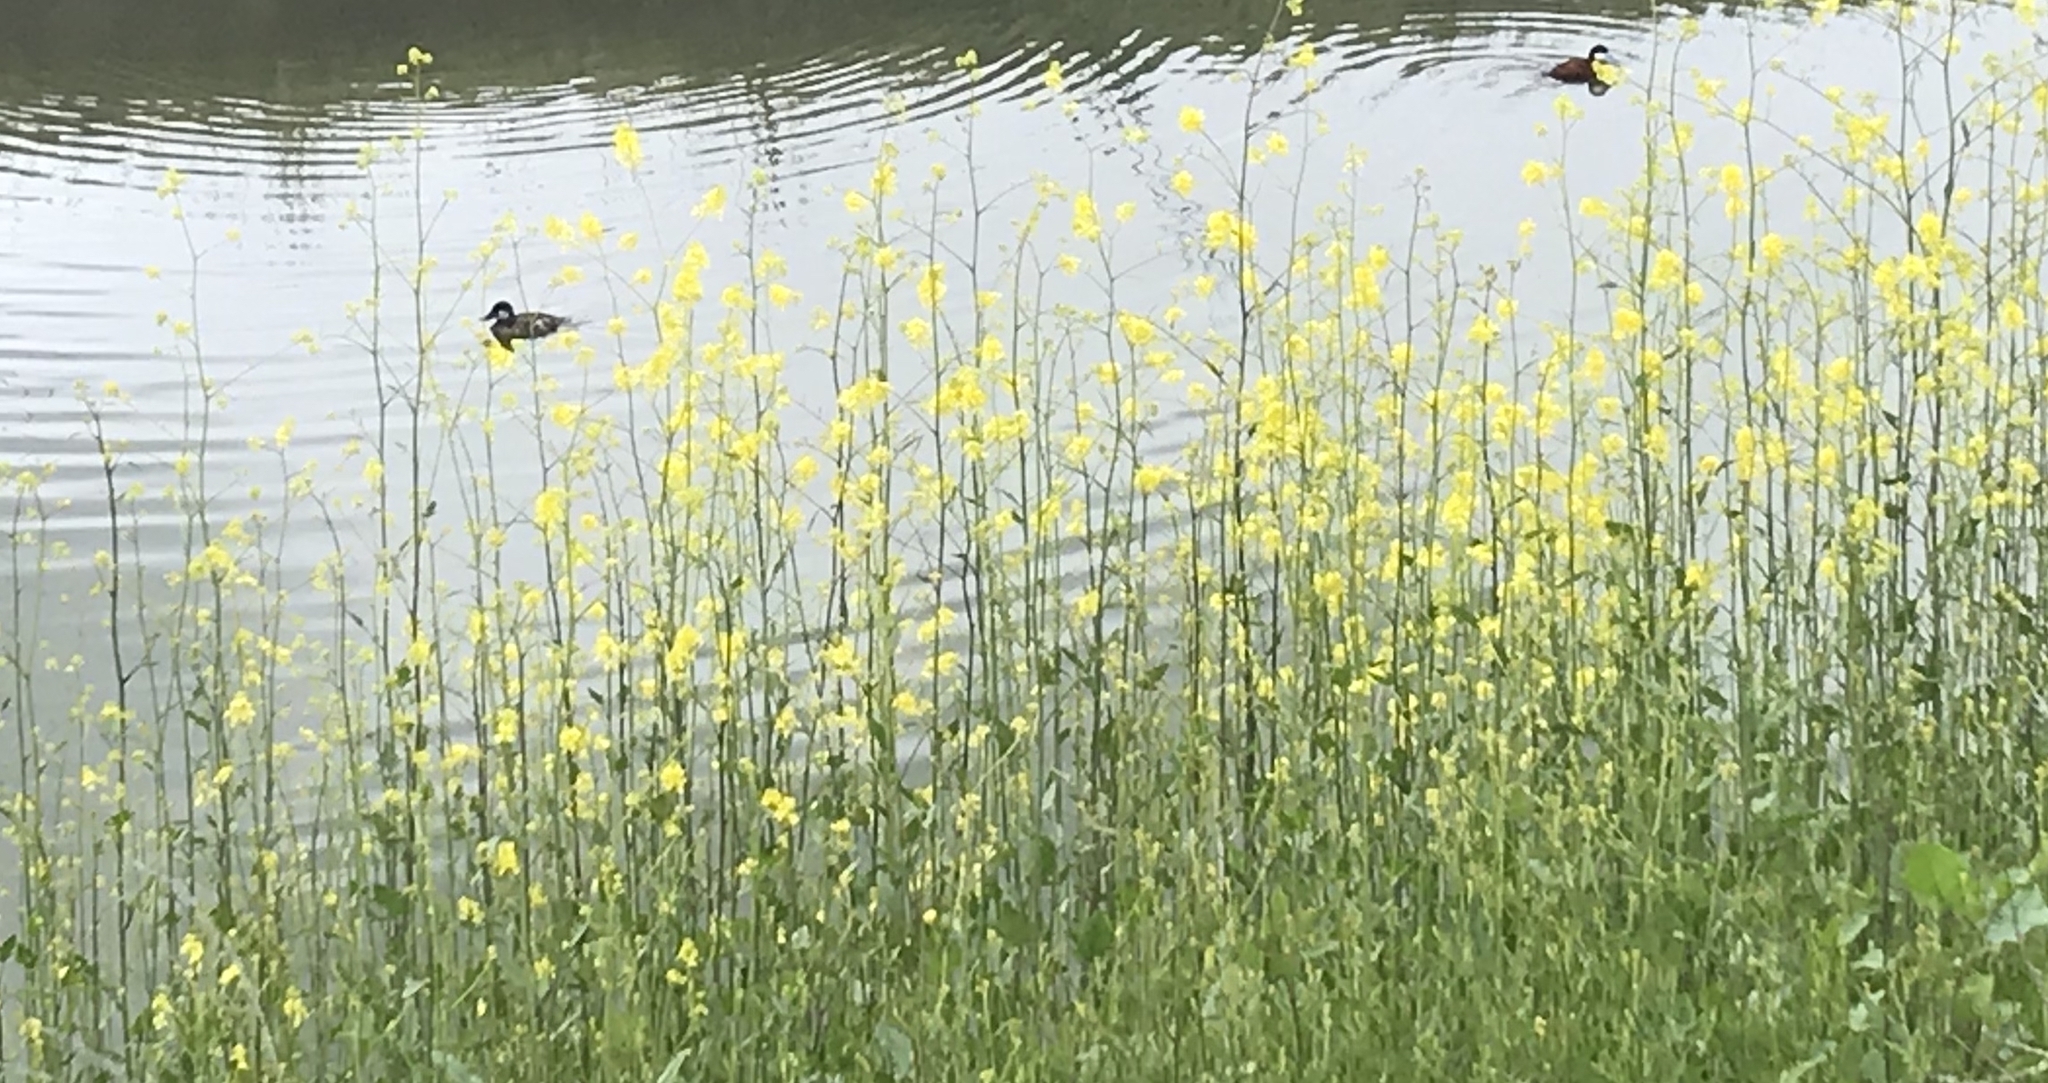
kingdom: Animalia
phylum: Chordata
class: Aves
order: Anseriformes
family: Anatidae
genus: Oxyura
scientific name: Oxyura jamaicensis
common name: Ruddy duck
